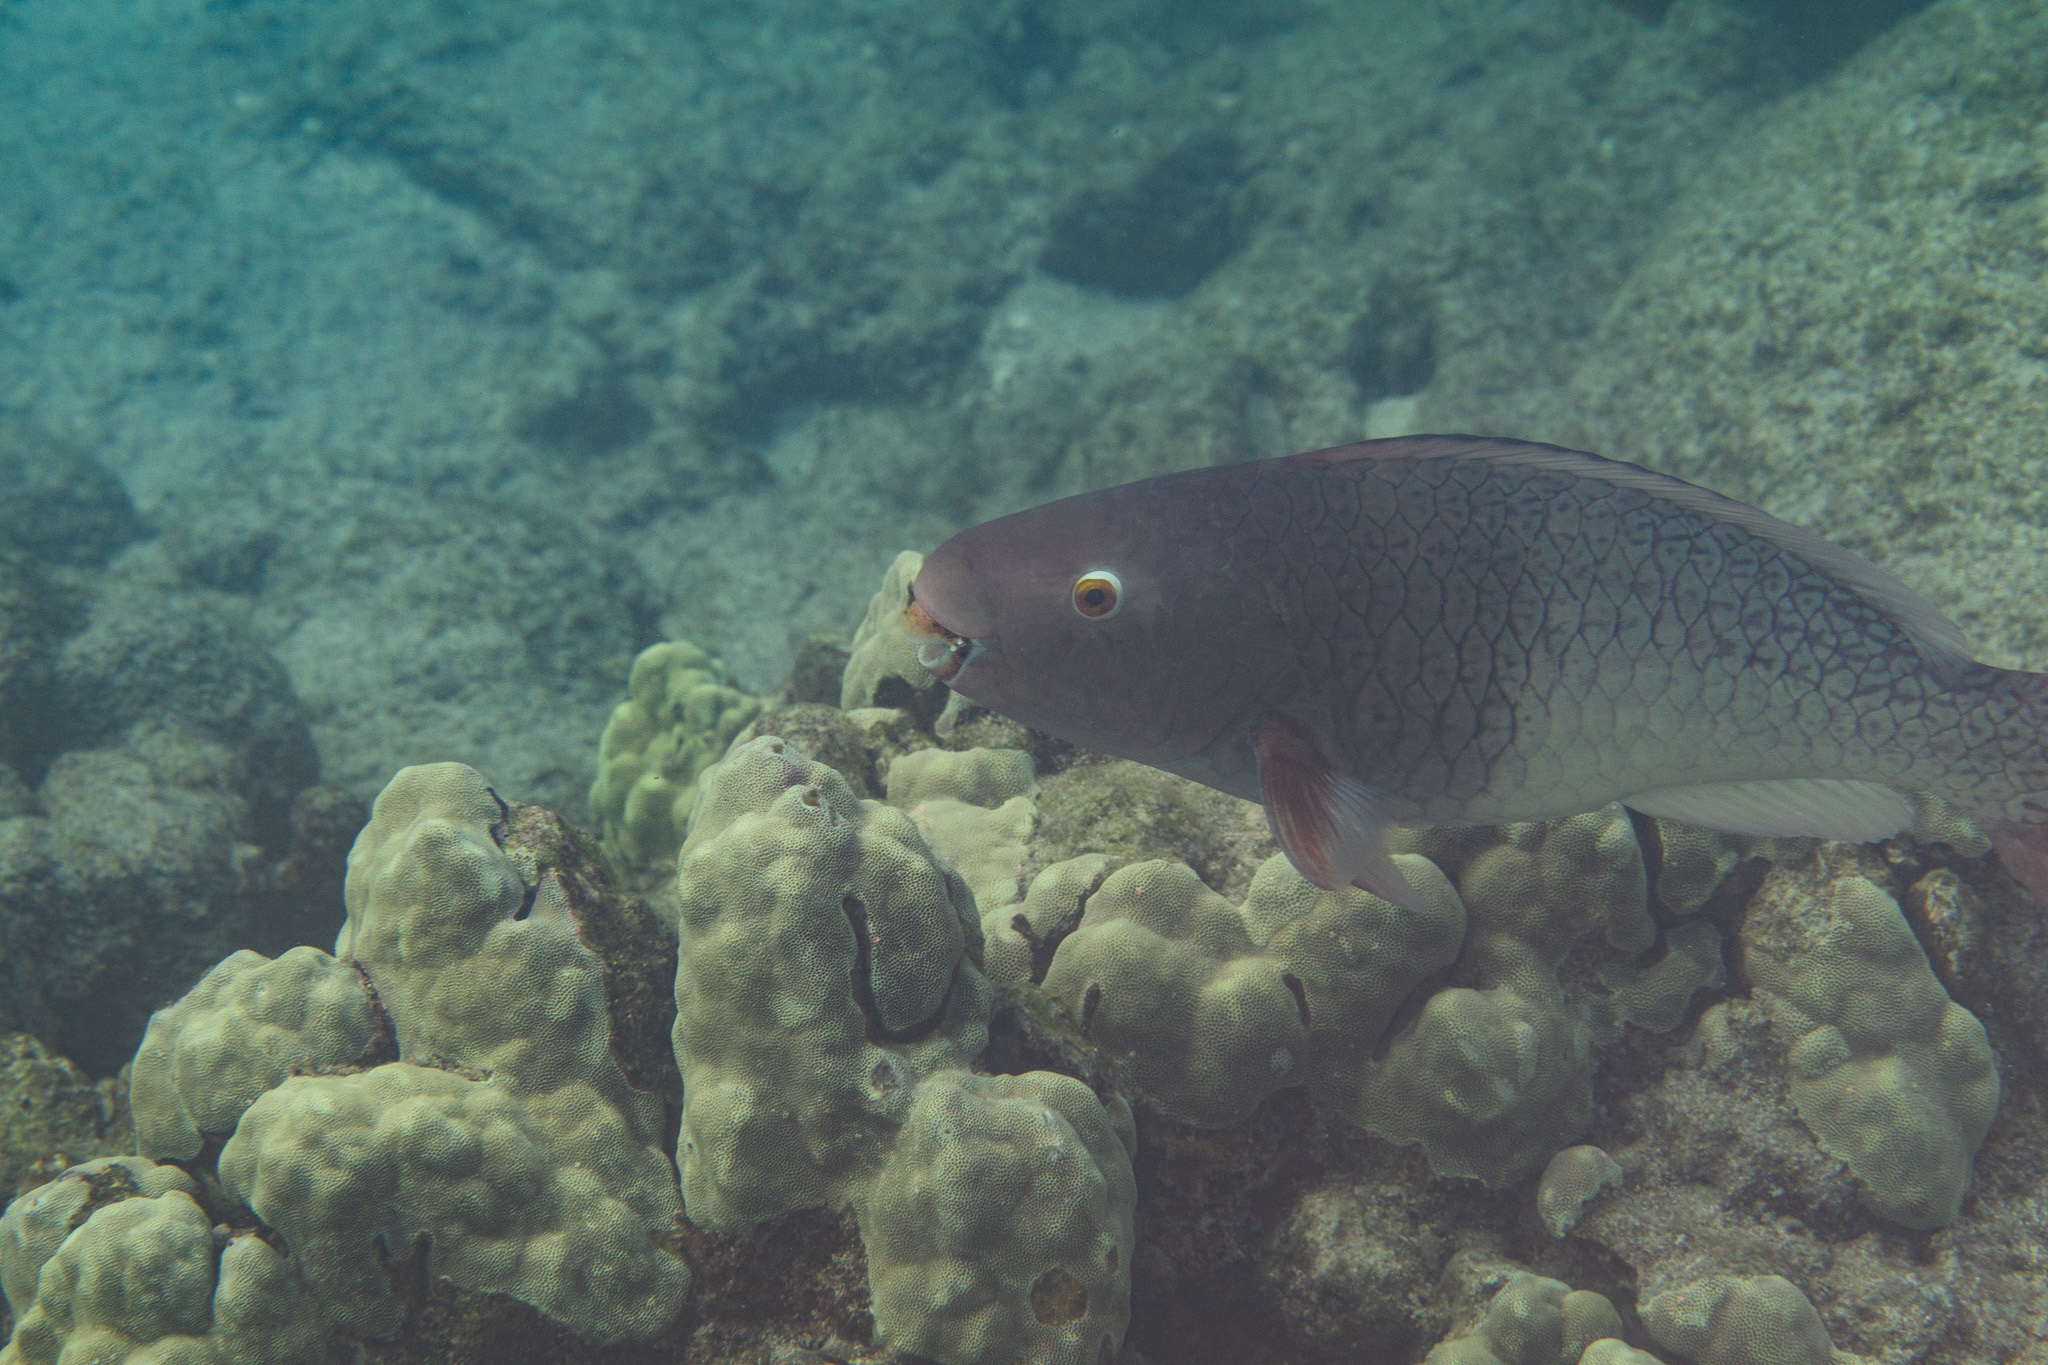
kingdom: Animalia
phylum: Chordata
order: Perciformes
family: Scaridae
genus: Scarus
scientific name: Scarus rubroviolaceus
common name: Ember parrotfish
